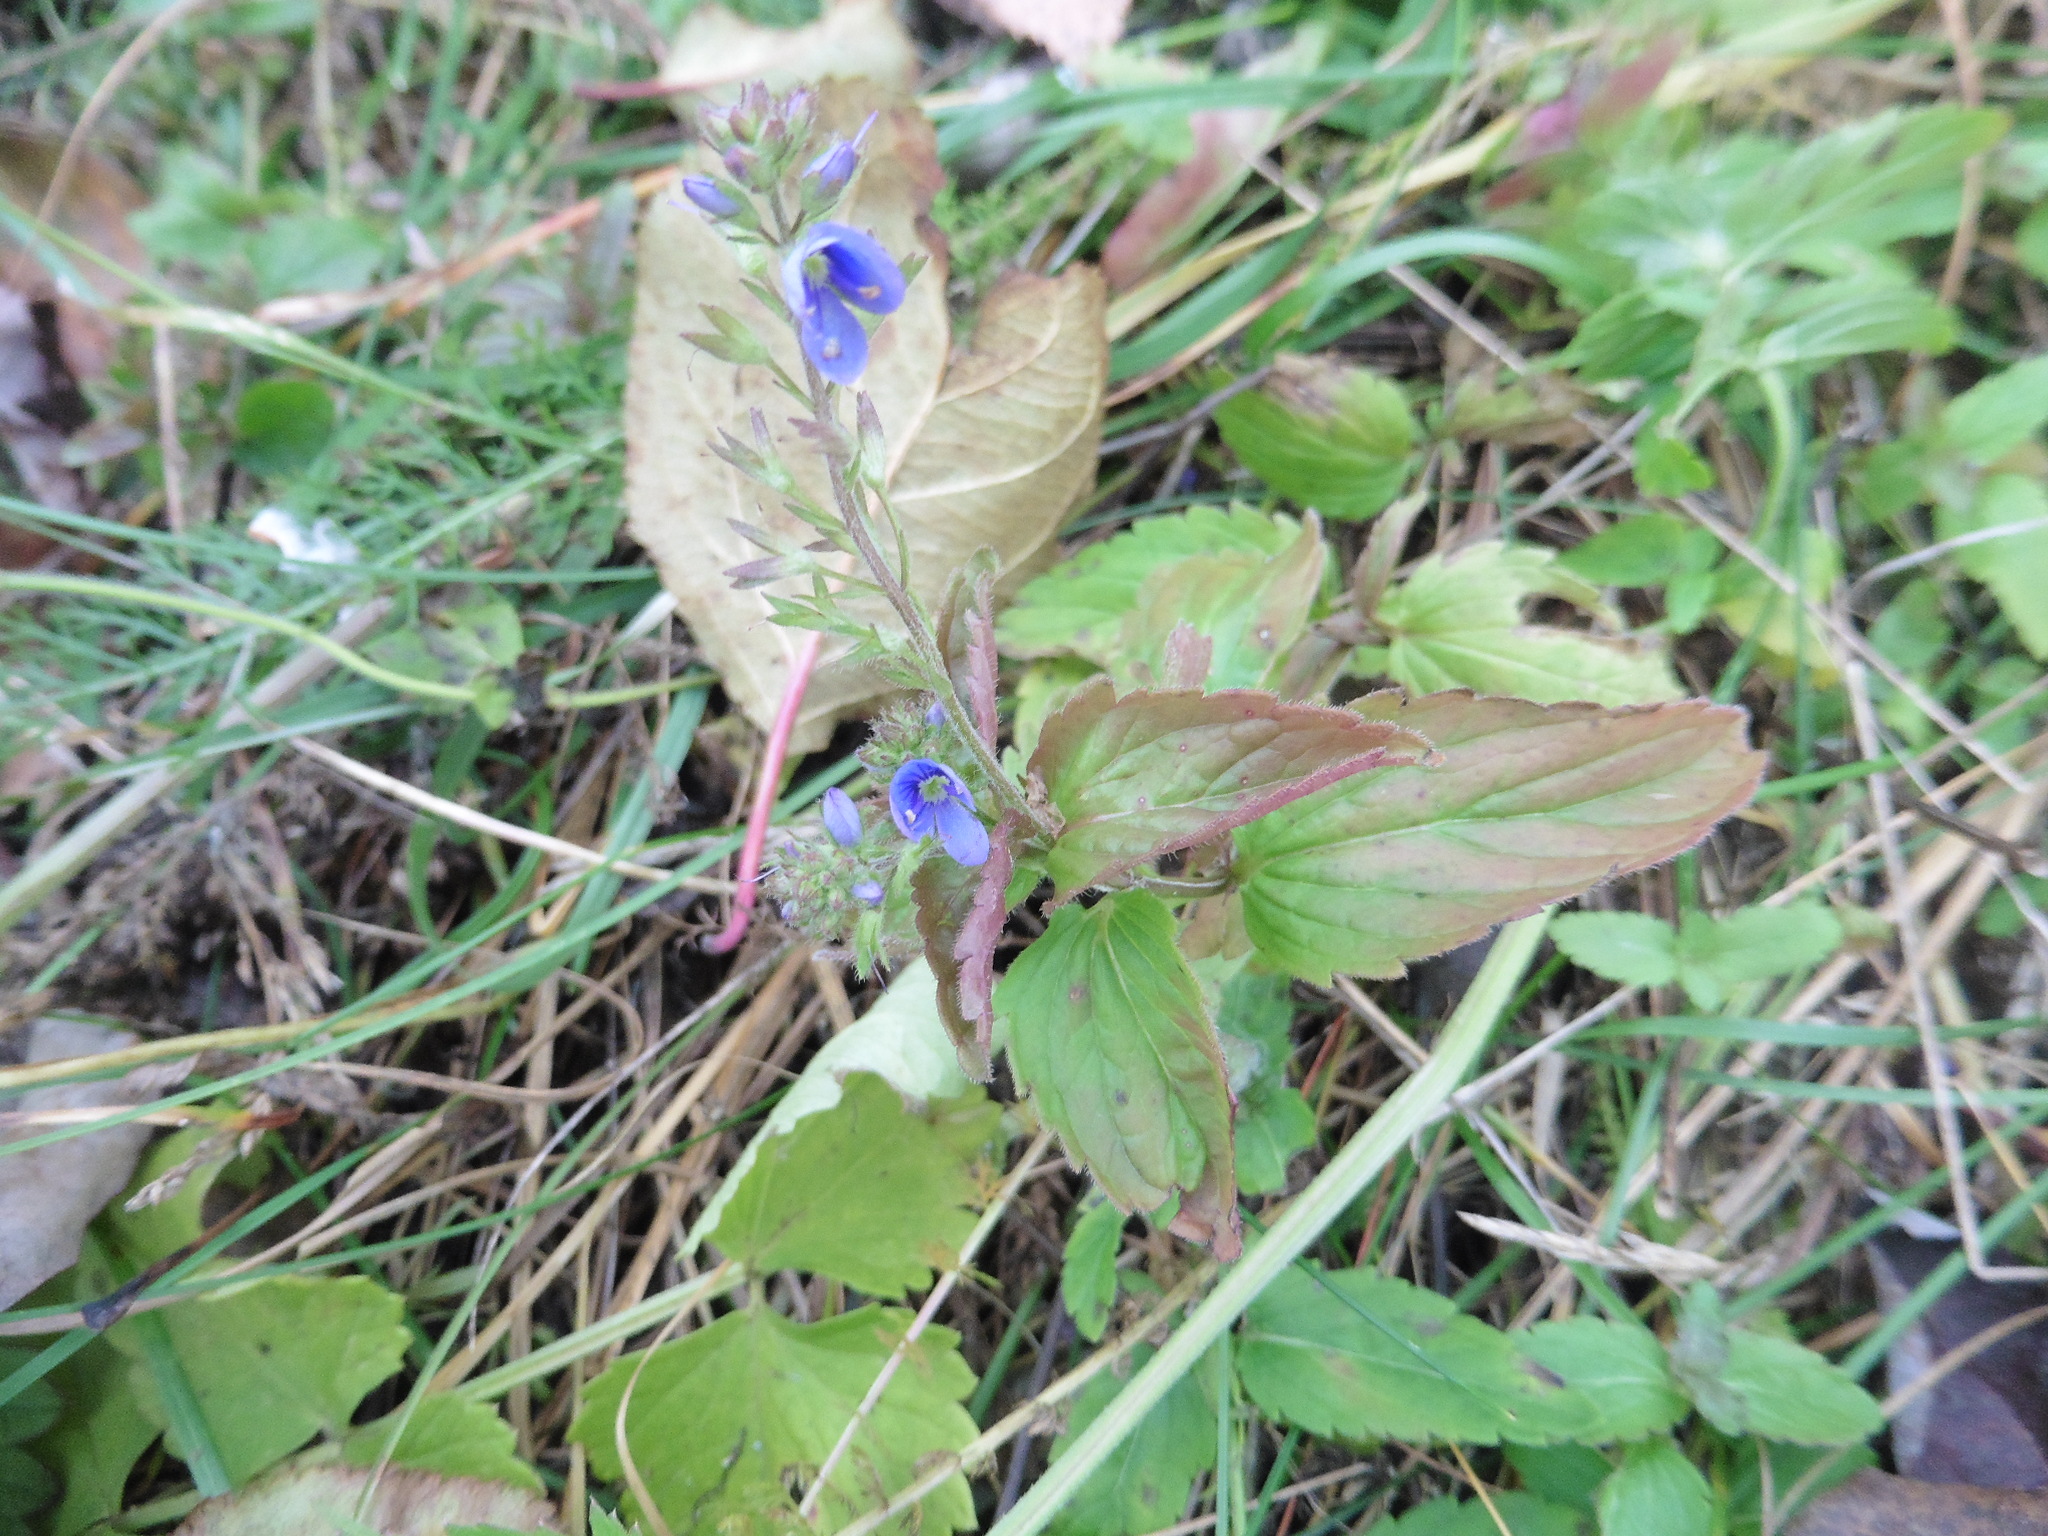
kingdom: Plantae
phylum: Tracheophyta
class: Magnoliopsida
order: Lamiales
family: Plantaginaceae
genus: Veronica
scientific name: Veronica chamaedrys
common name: Germander speedwell
